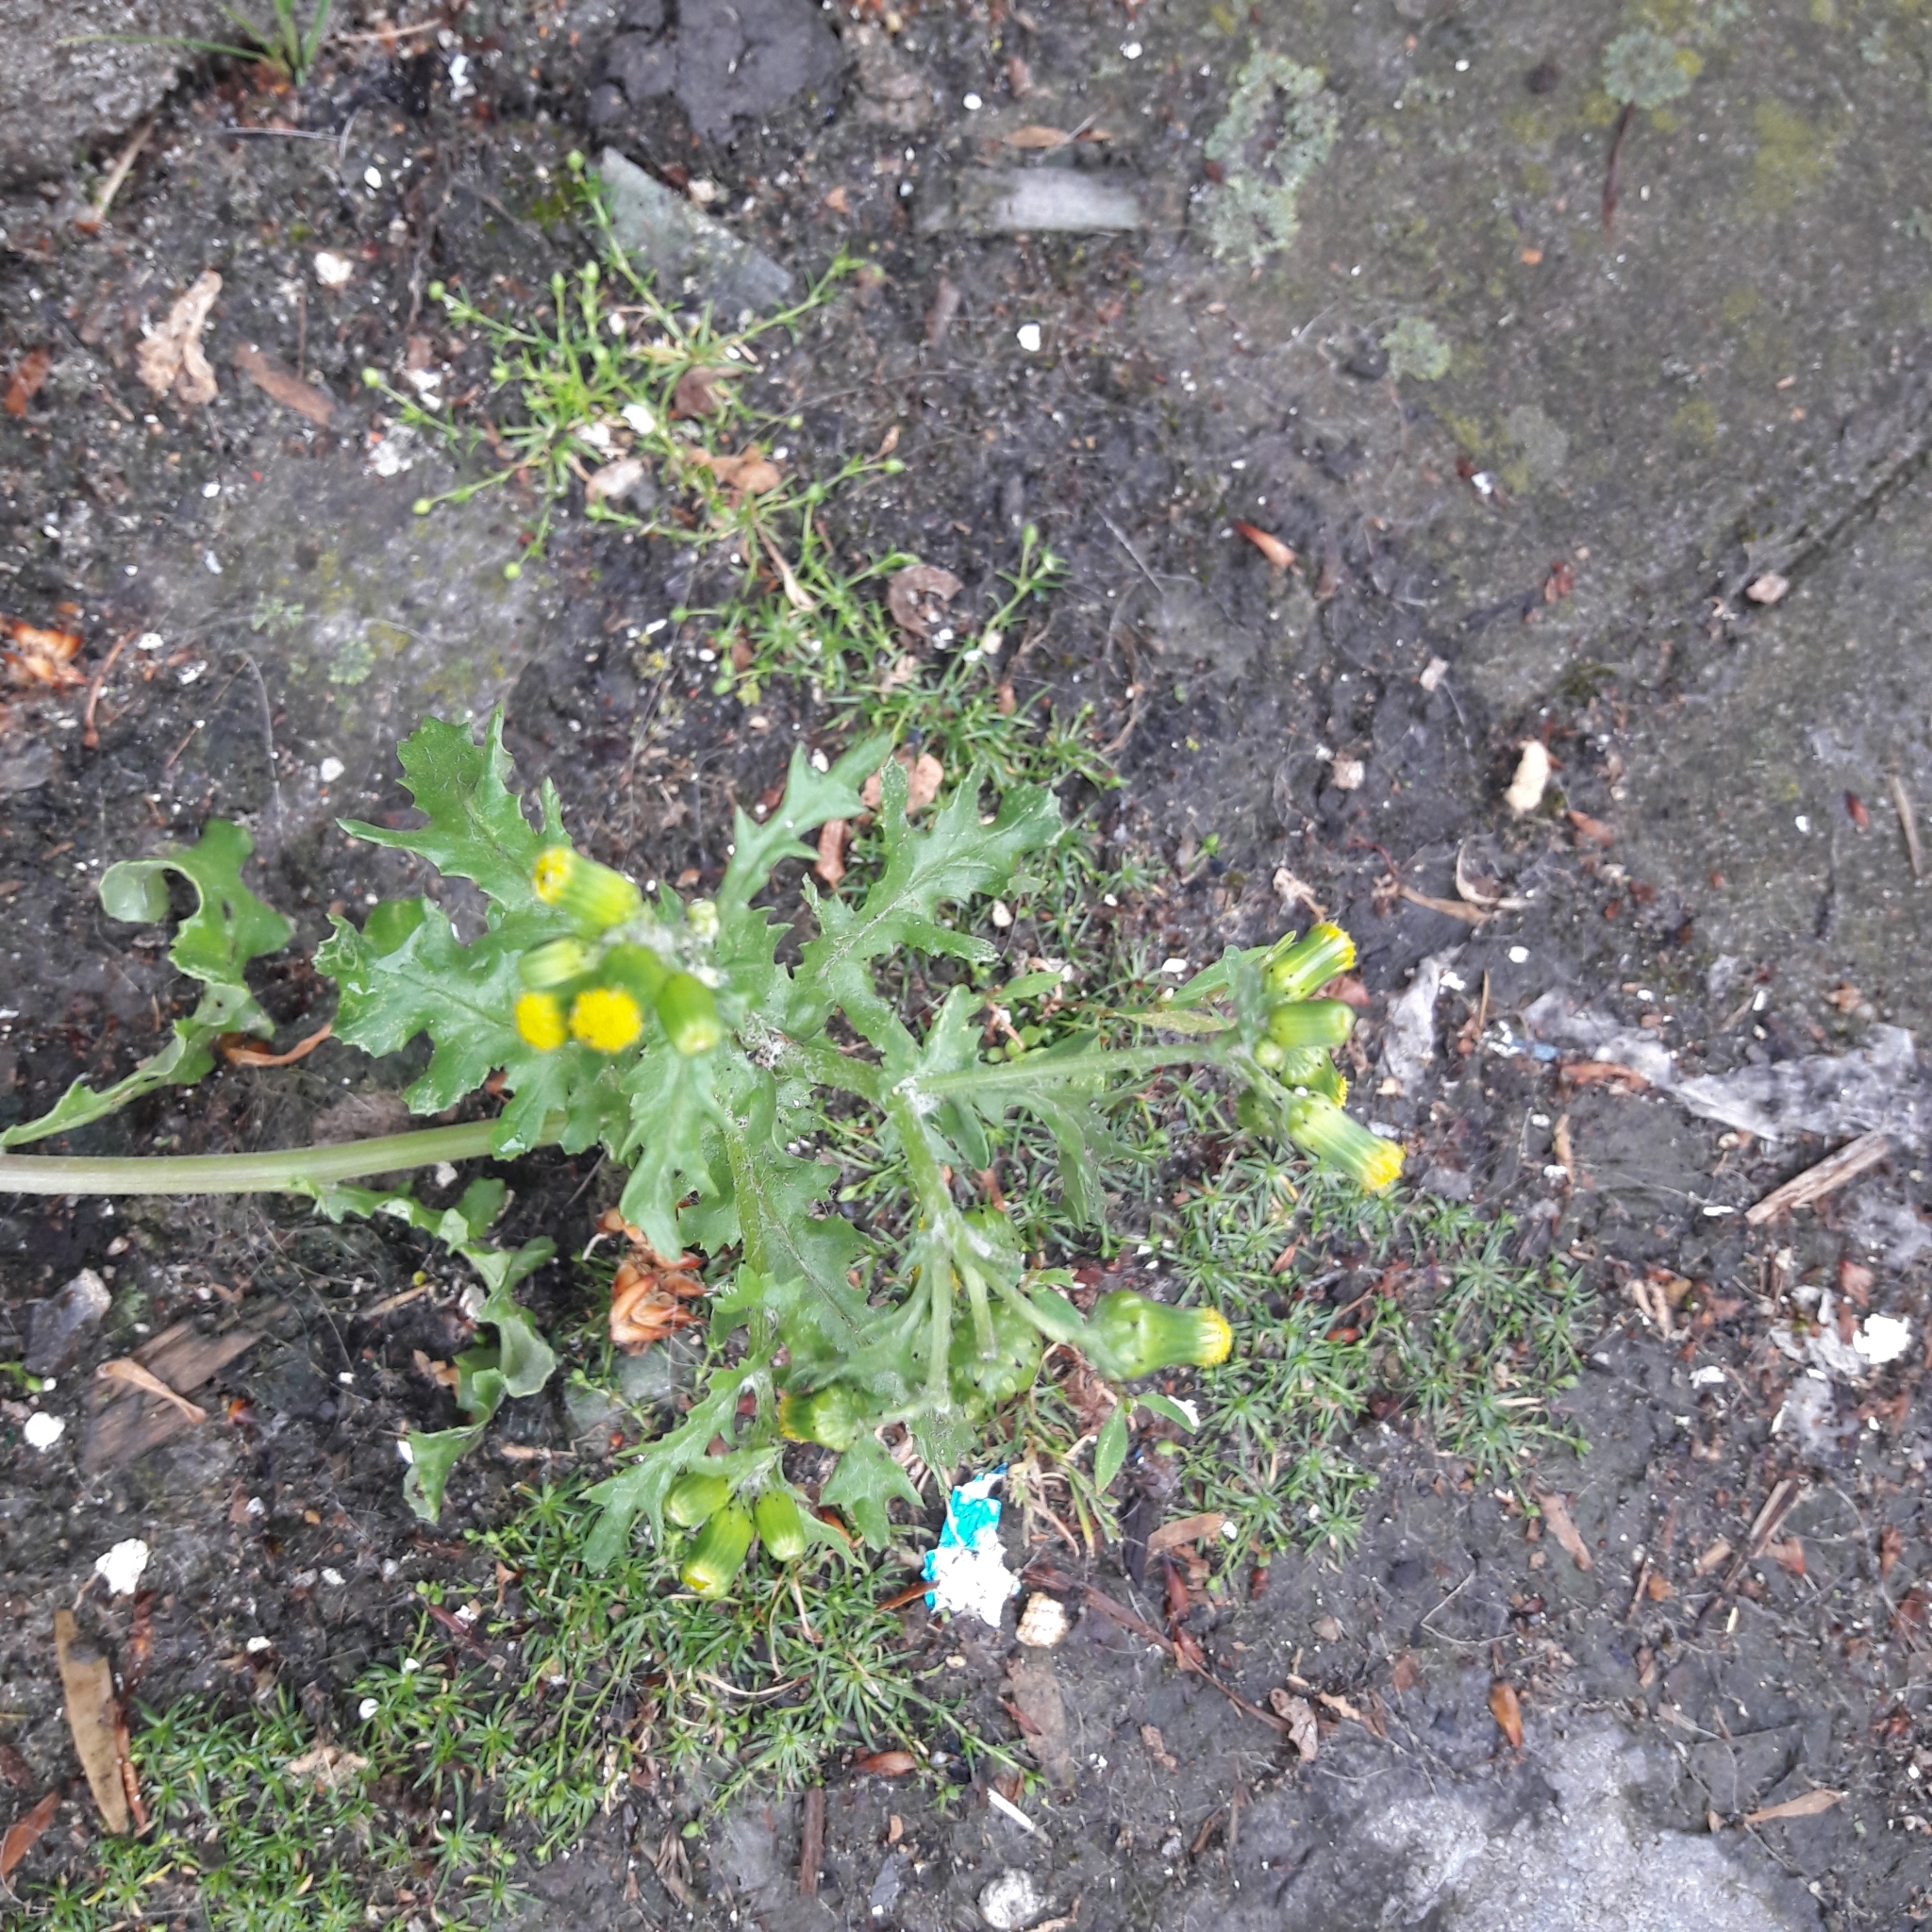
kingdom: Plantae
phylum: Tracheophyta
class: Magnoliopsida
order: Asterales
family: Asteraceae
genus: Senecio
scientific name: Senecio vulgaris
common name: Old-man-in-the-spring
